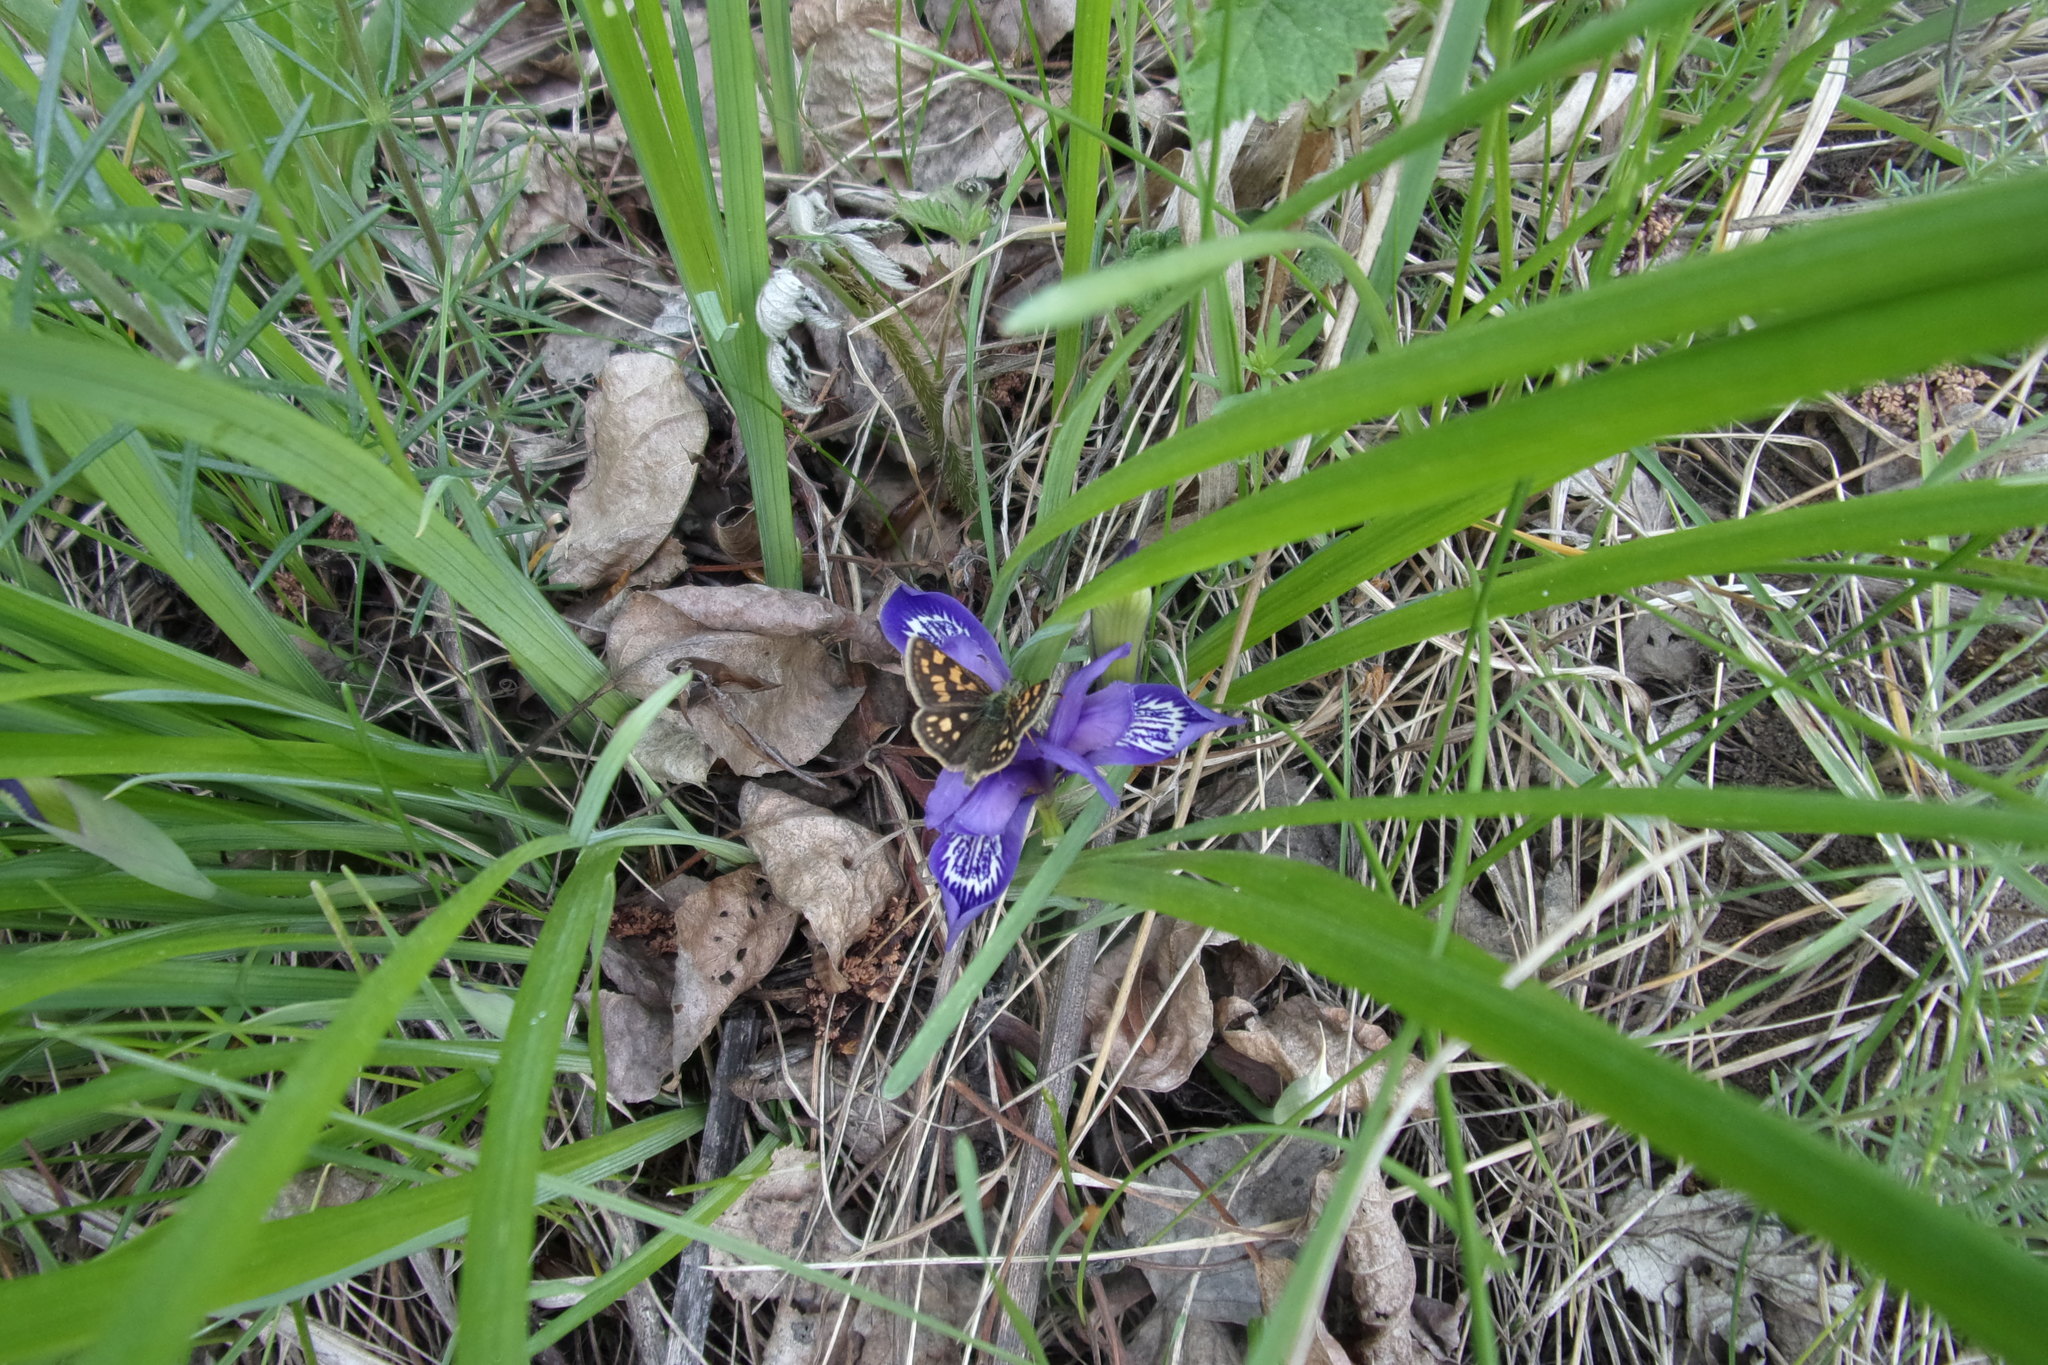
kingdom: Plantae
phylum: Tracheophyta
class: Liliopsida
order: Asparagales
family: Iridaceae
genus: Iris
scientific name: Iris ruthenica
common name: Purple-bract iris
